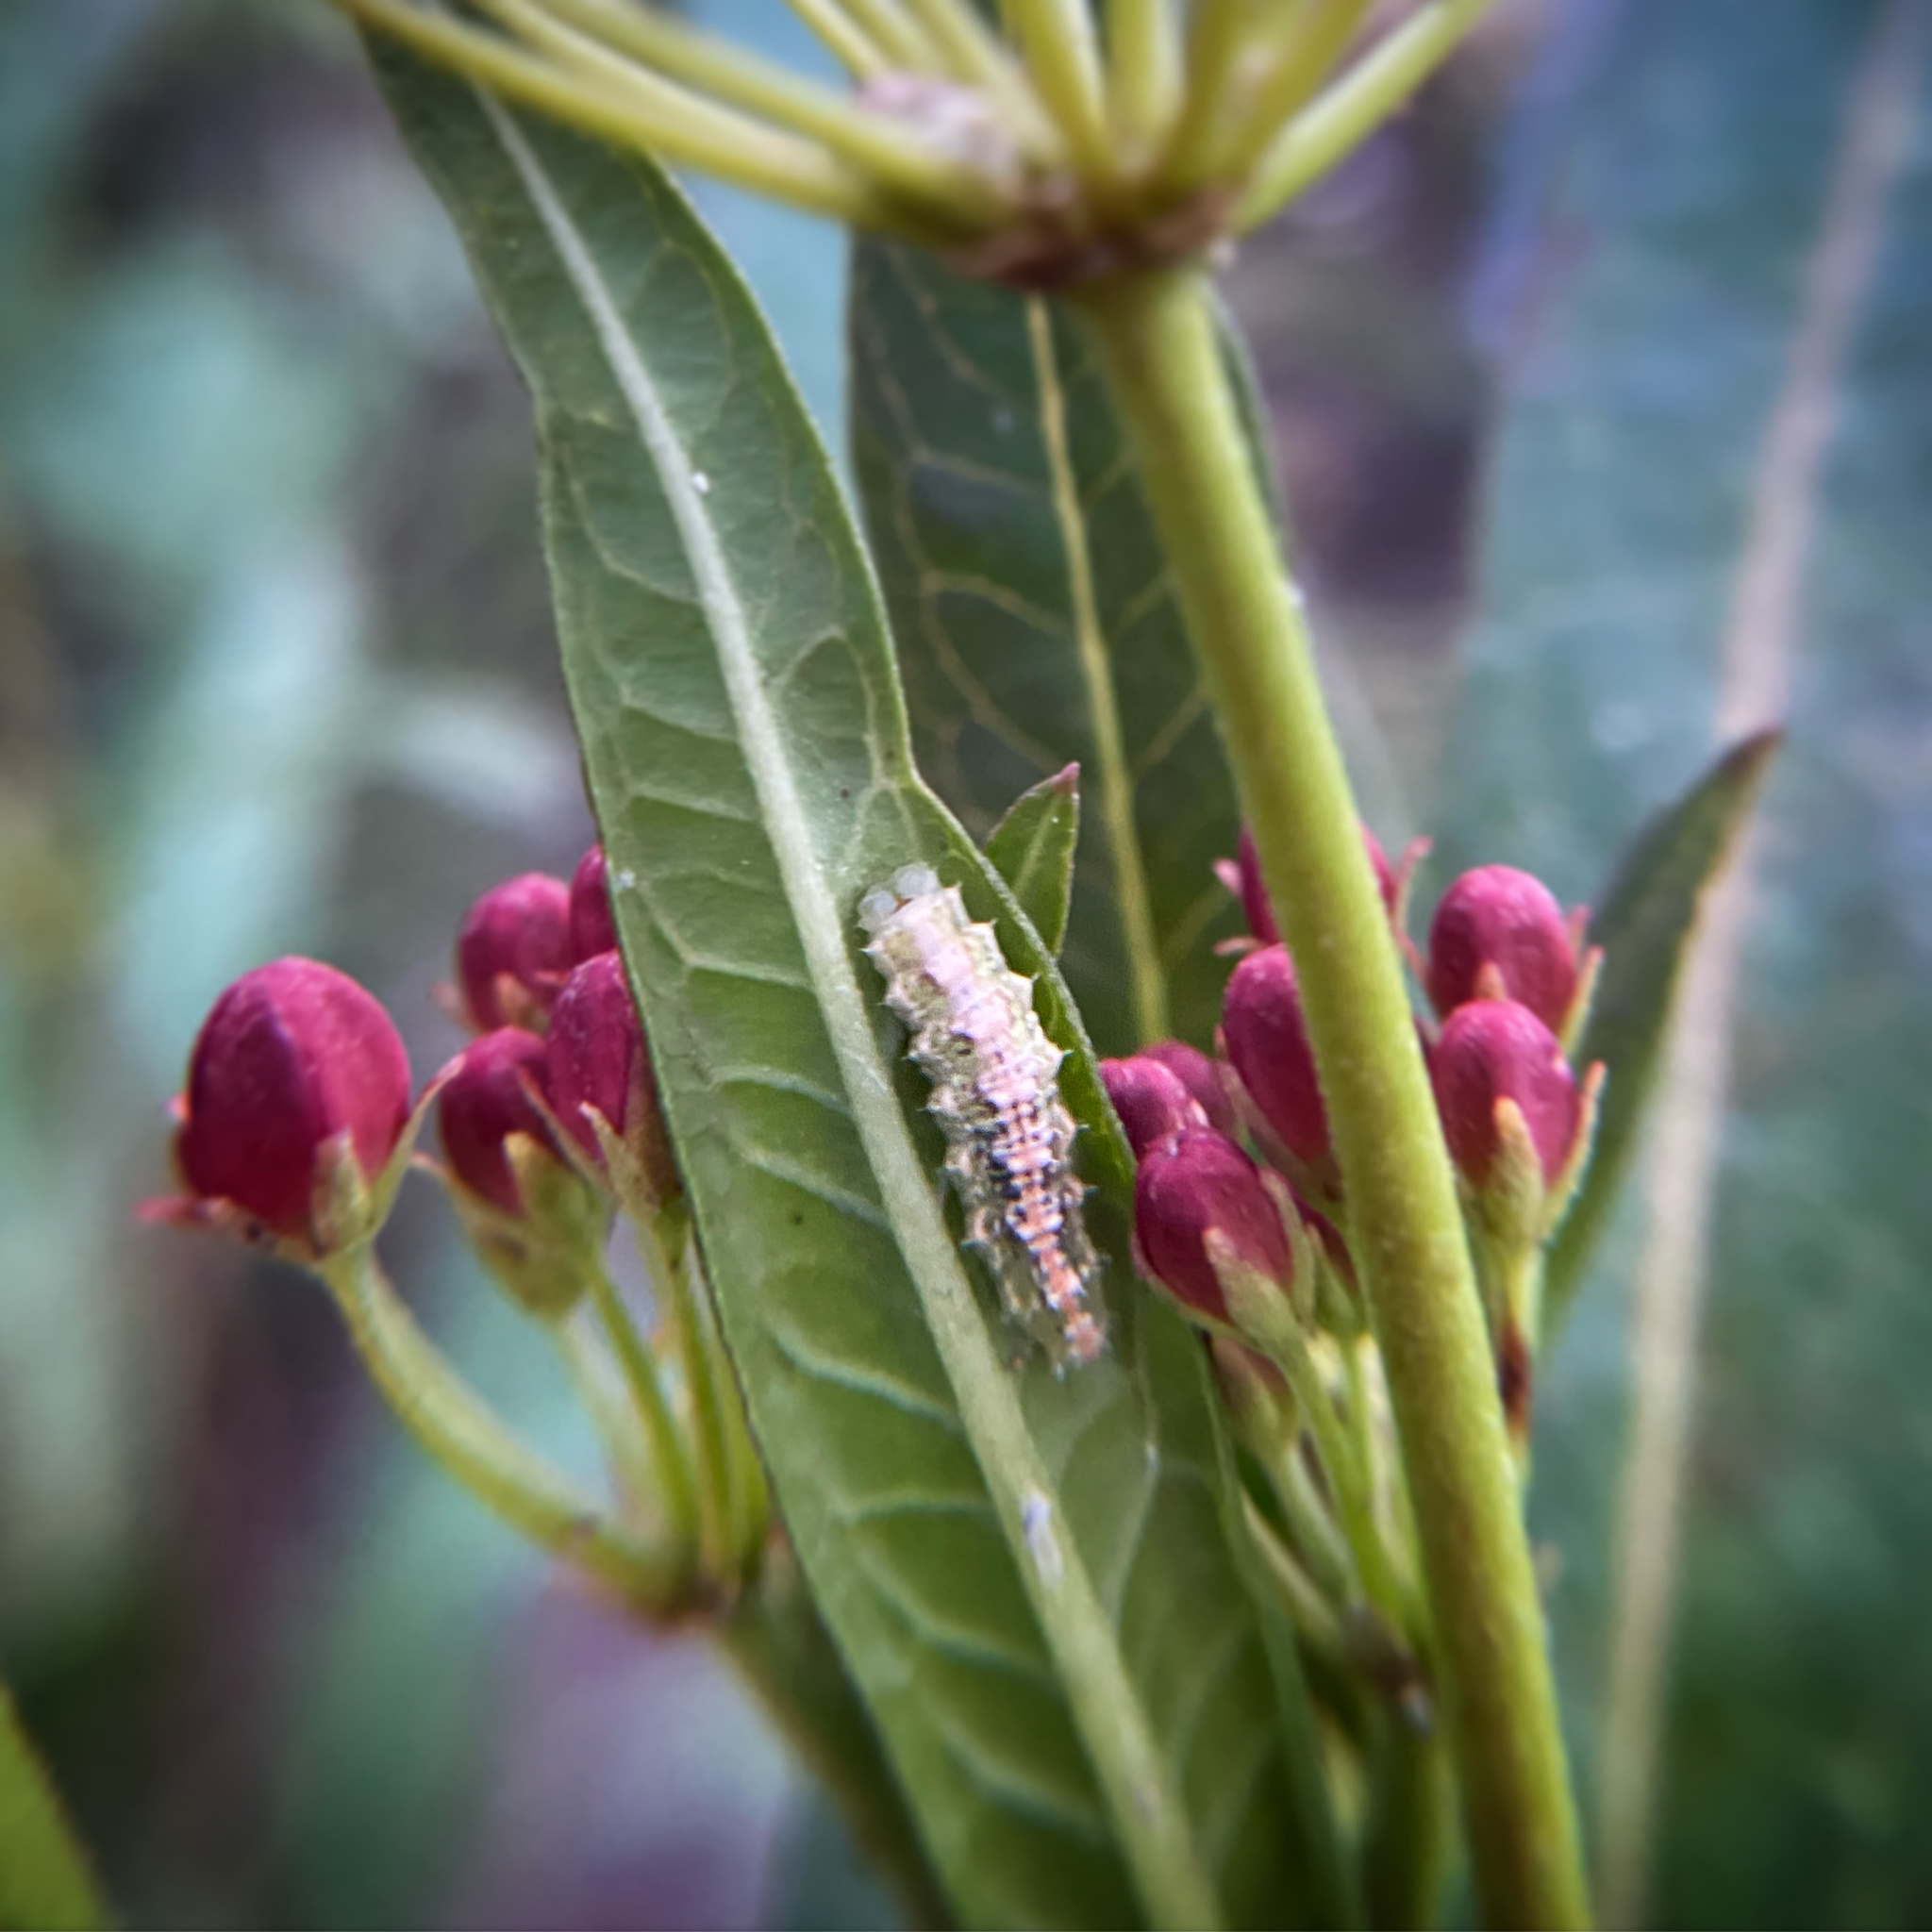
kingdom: Animalia
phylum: Arthropoda
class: Insecta
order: Diptera
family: Syrphidae
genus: Dioprosopa
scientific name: Dioprosopa clavatus
